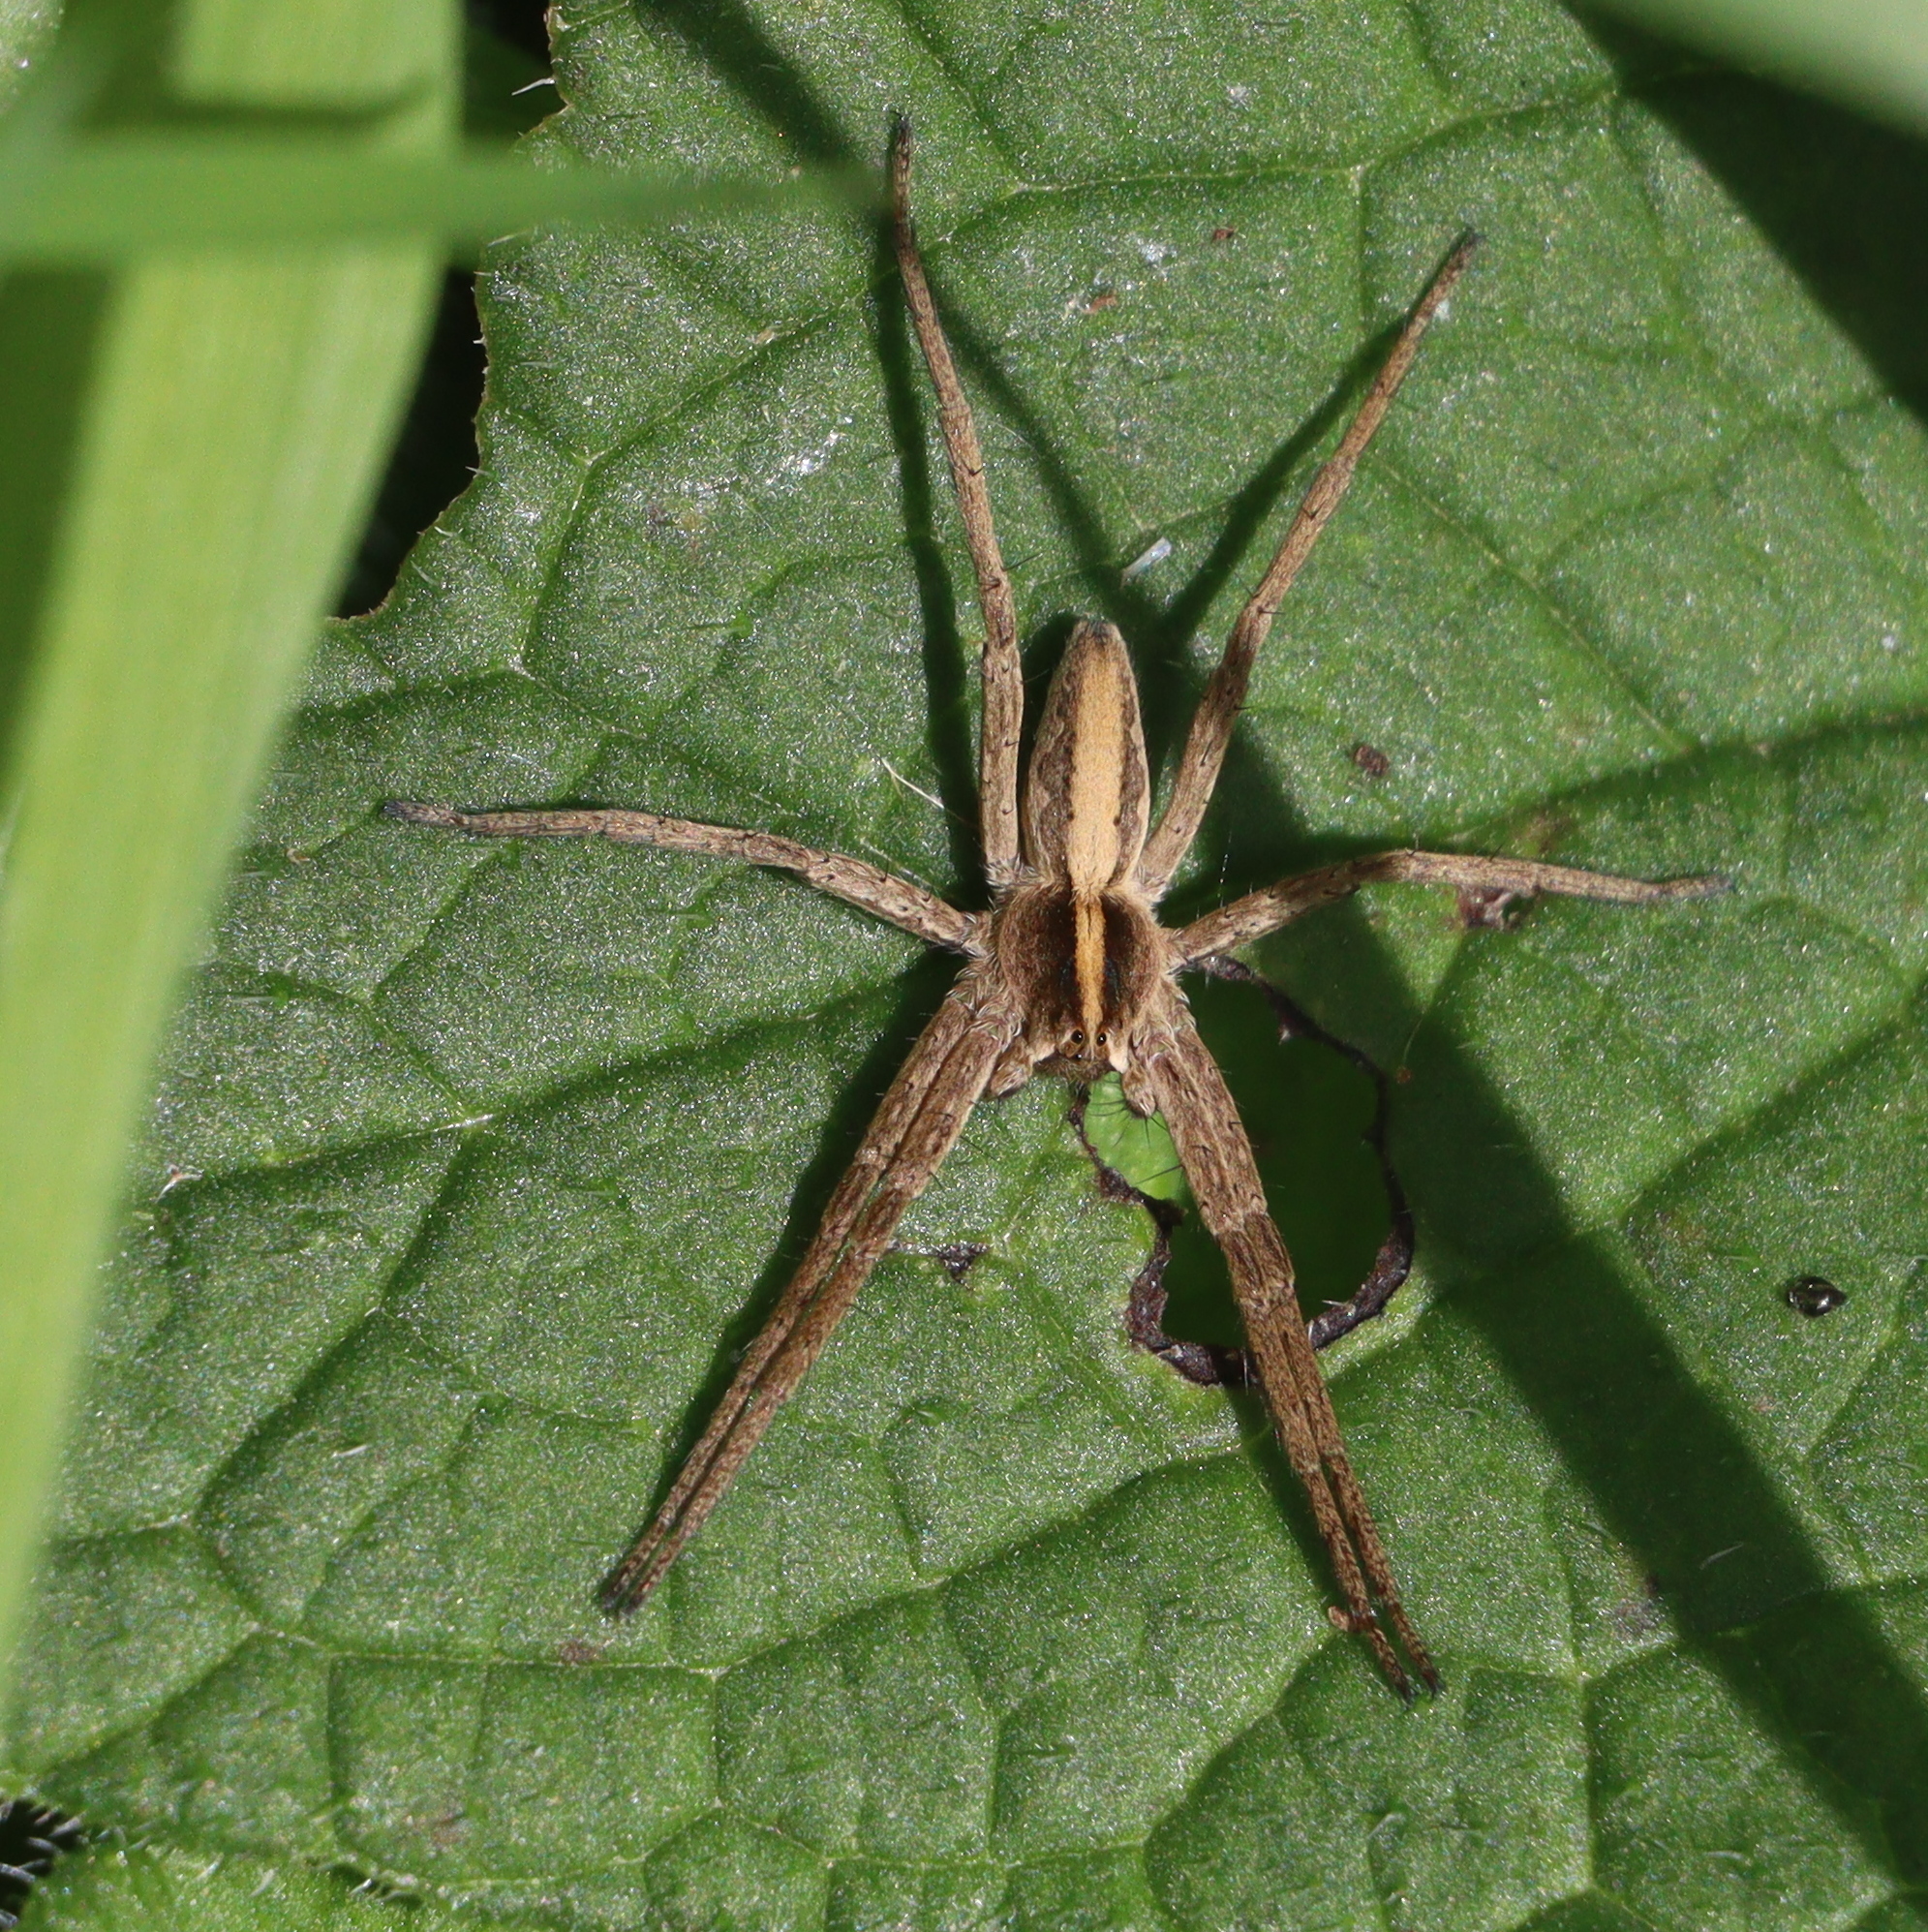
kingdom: Animalia
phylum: Arthropoda
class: Arachnida
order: Araneae
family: Pisauridae
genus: Pisaura
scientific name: Pisaura mirabilis
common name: Tent spider
